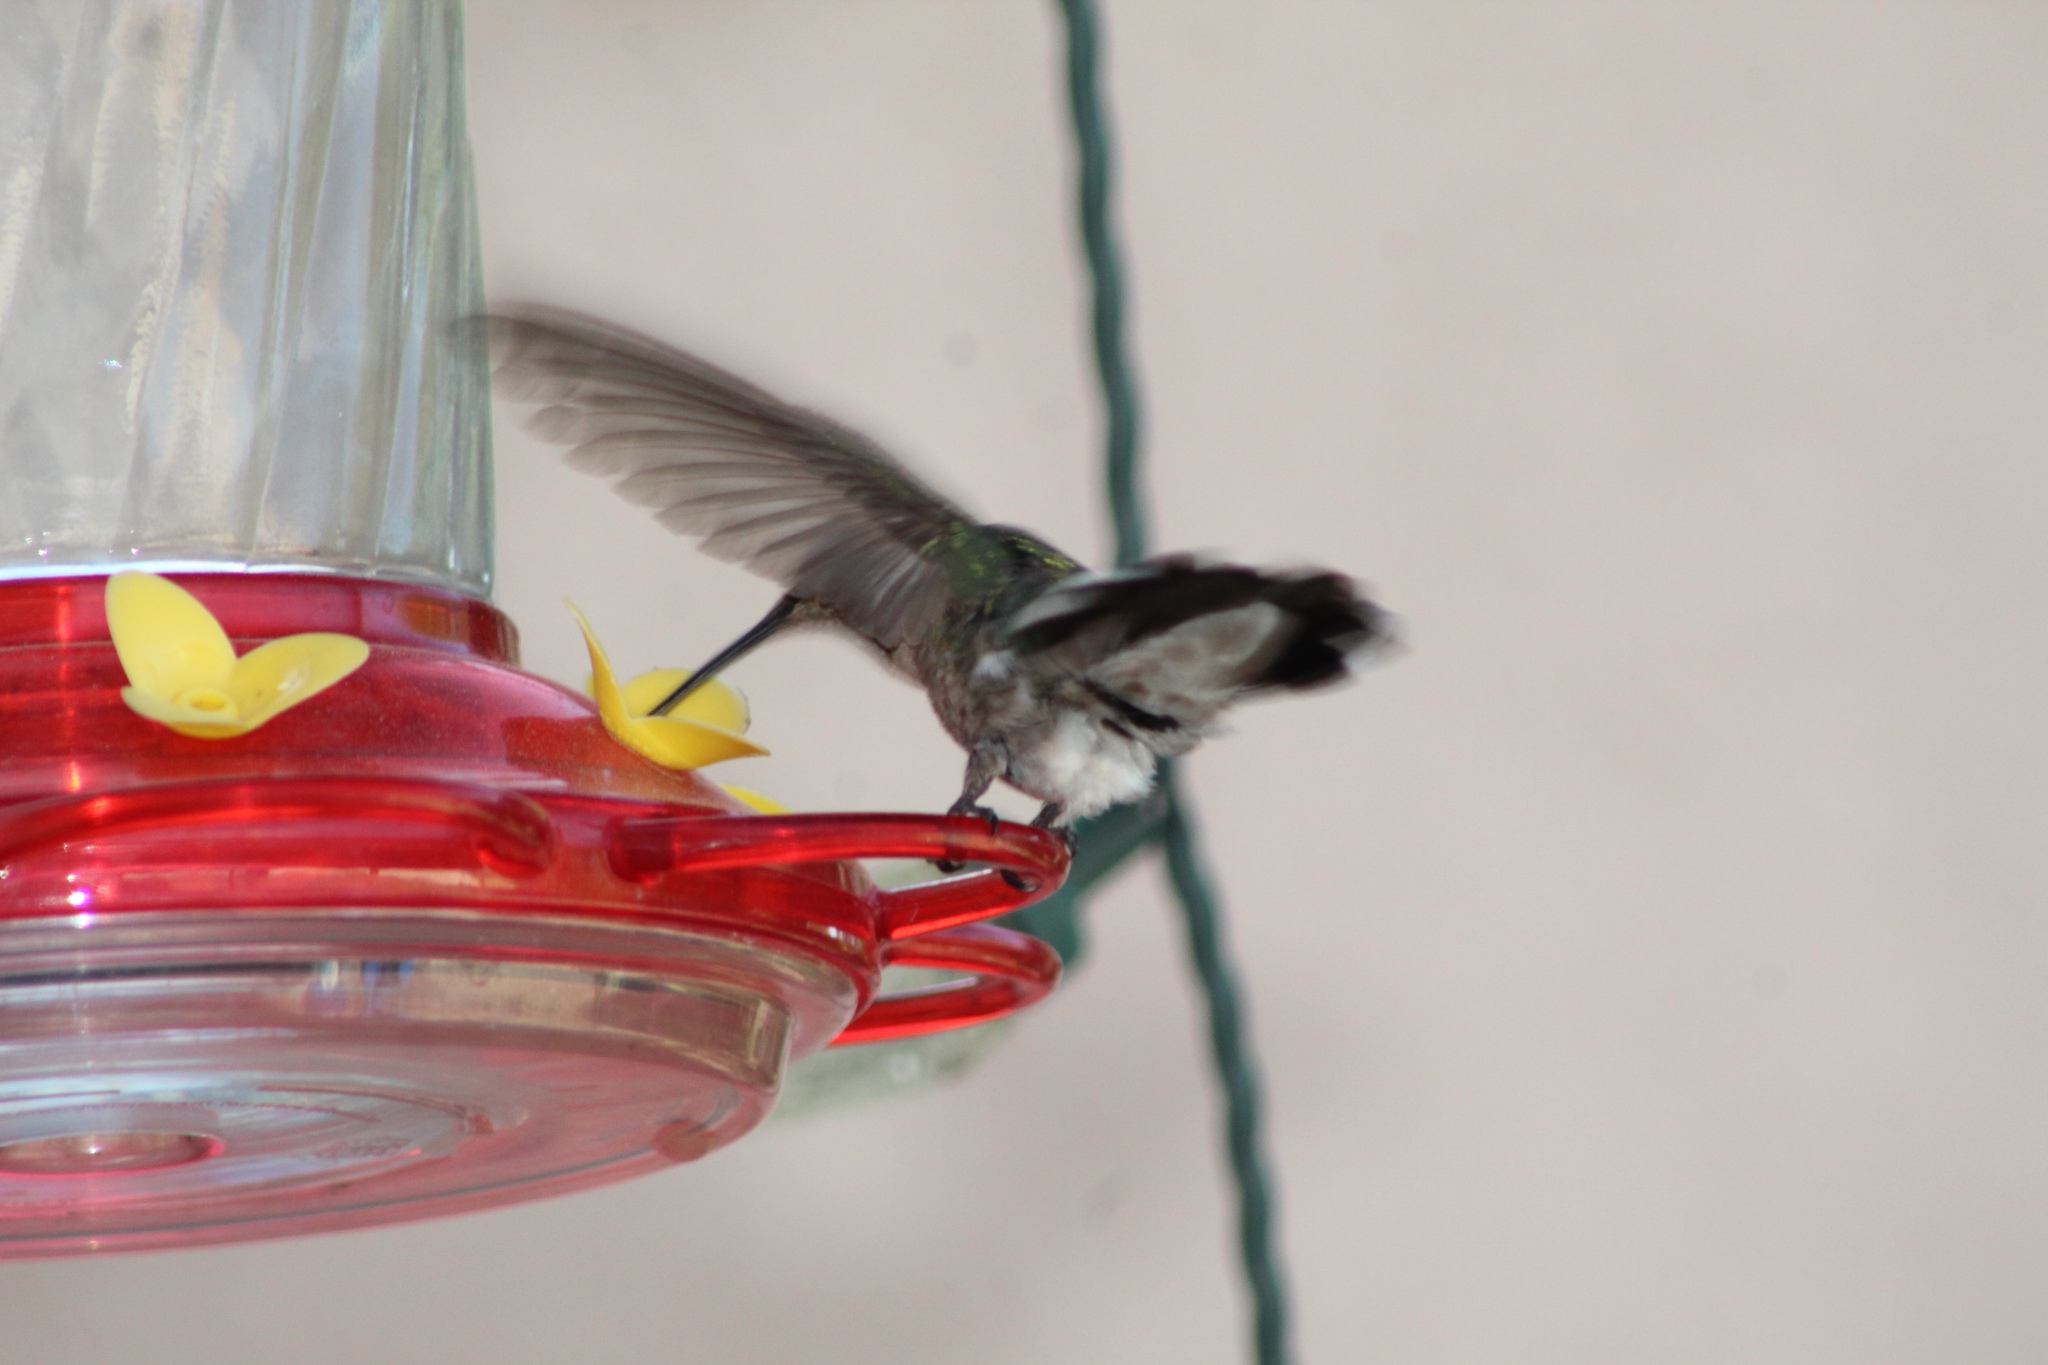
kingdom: Animalia
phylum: Chordata
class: Aves
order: Apodiformes
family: Trochilidae
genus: Calypte
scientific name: Calypte anna
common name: Anna's hummingbird
